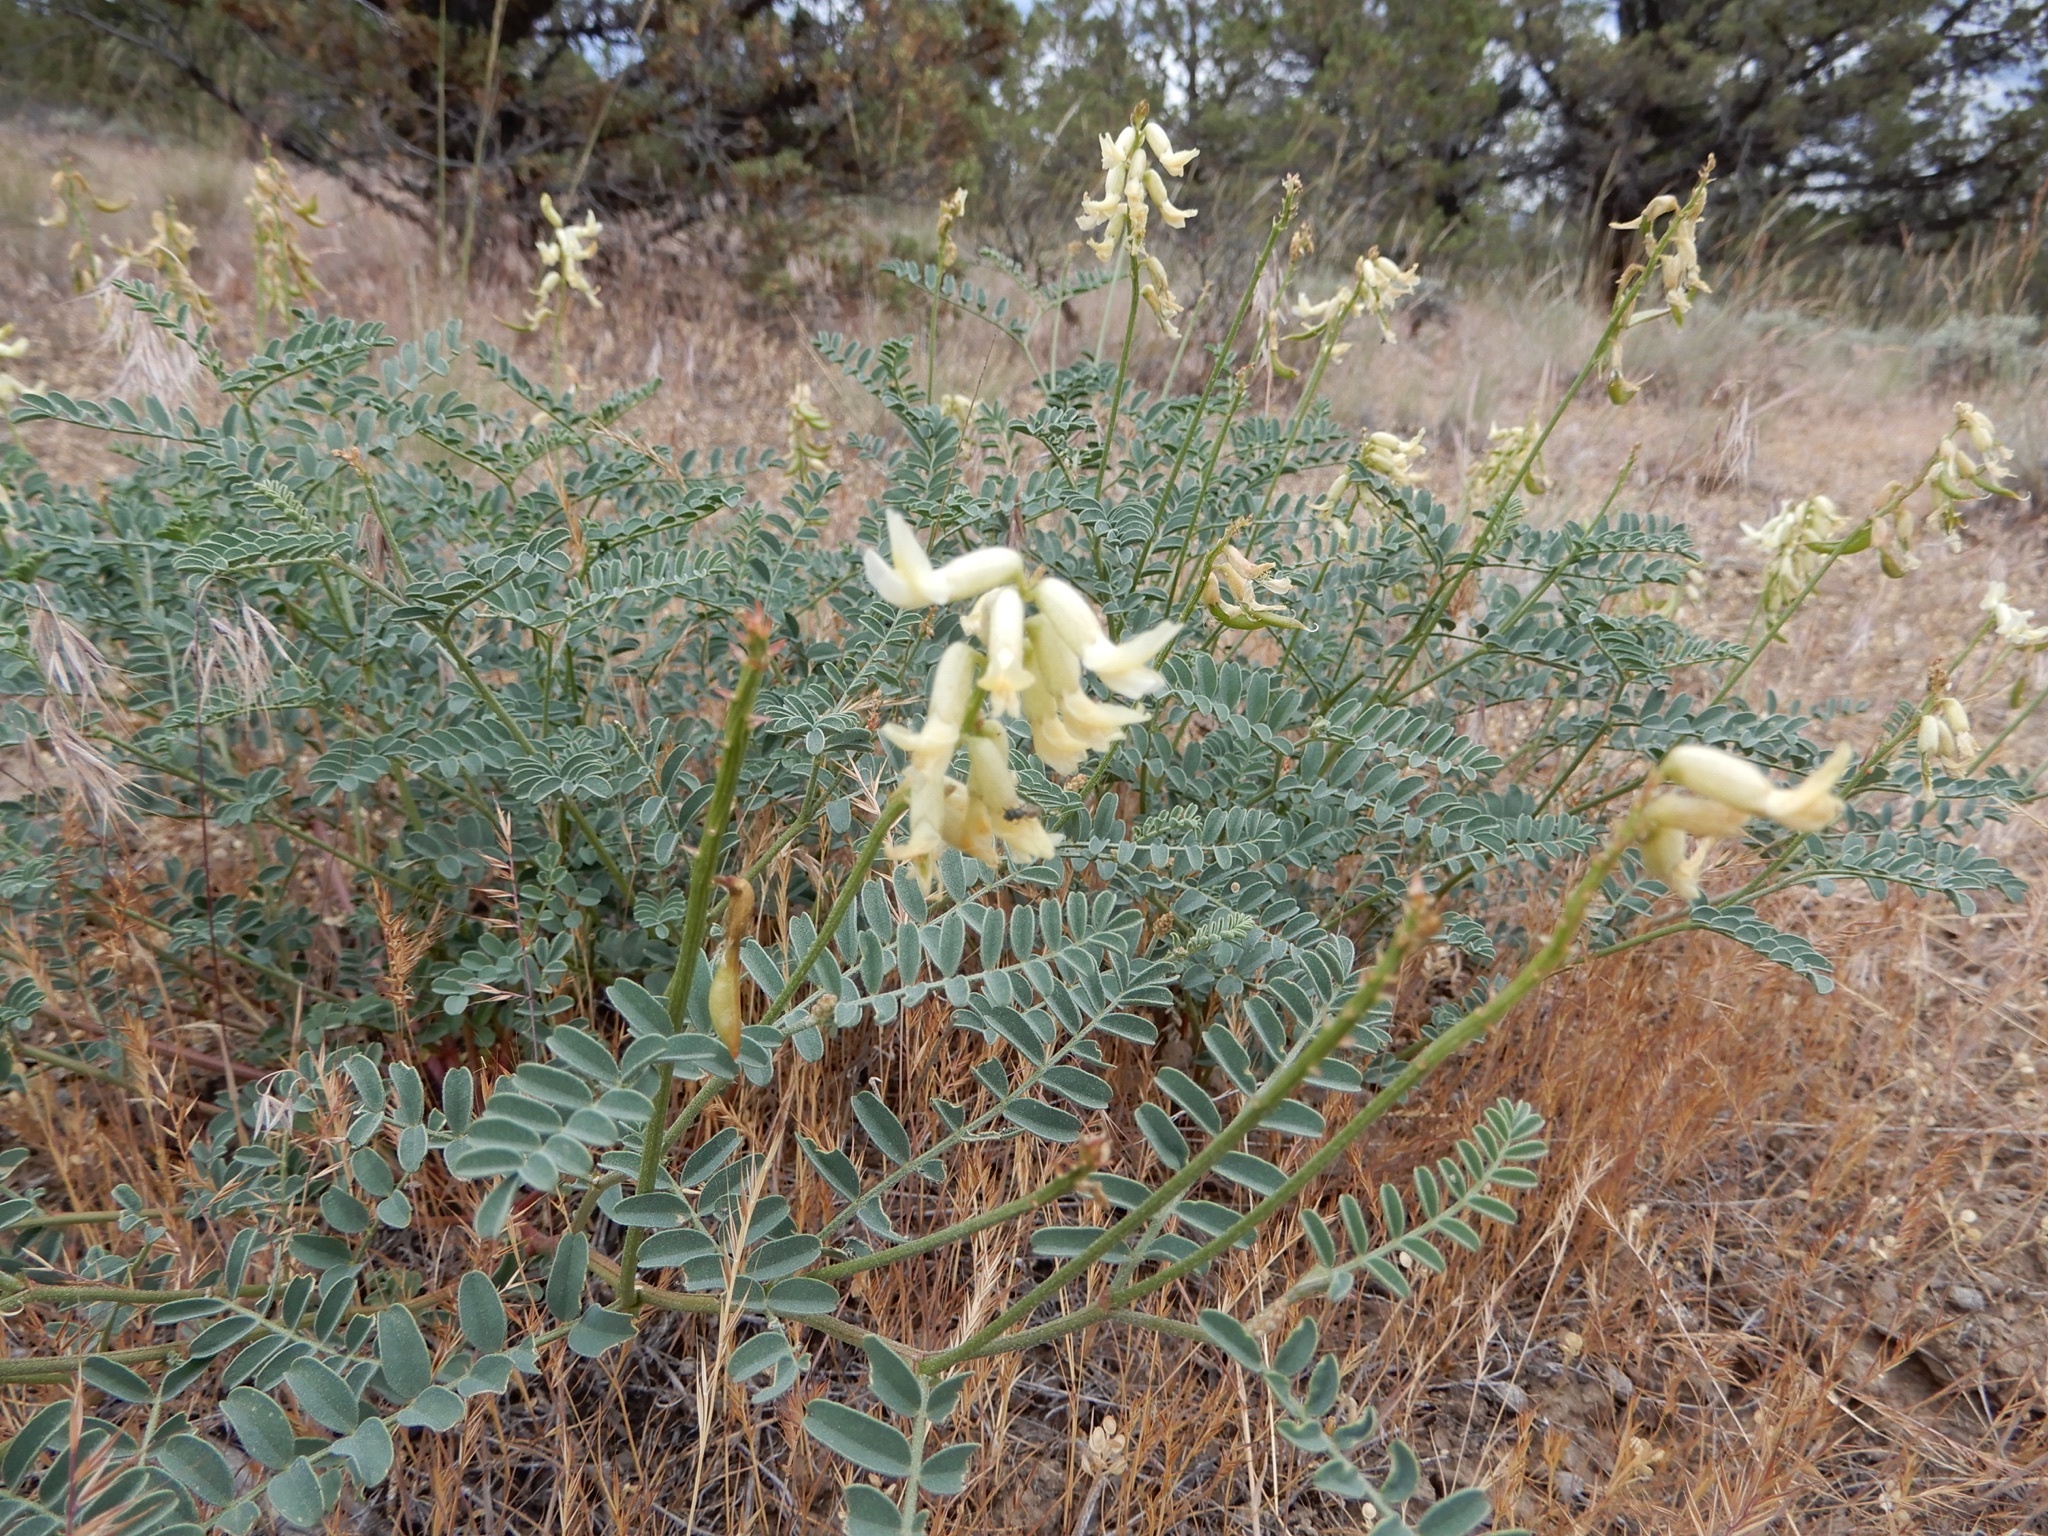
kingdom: Plantae
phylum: Tracheophyta
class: Magnoliopsida
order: Fabales
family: Fabaceae
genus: Astragalus
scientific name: Astragalus curvicarpus
